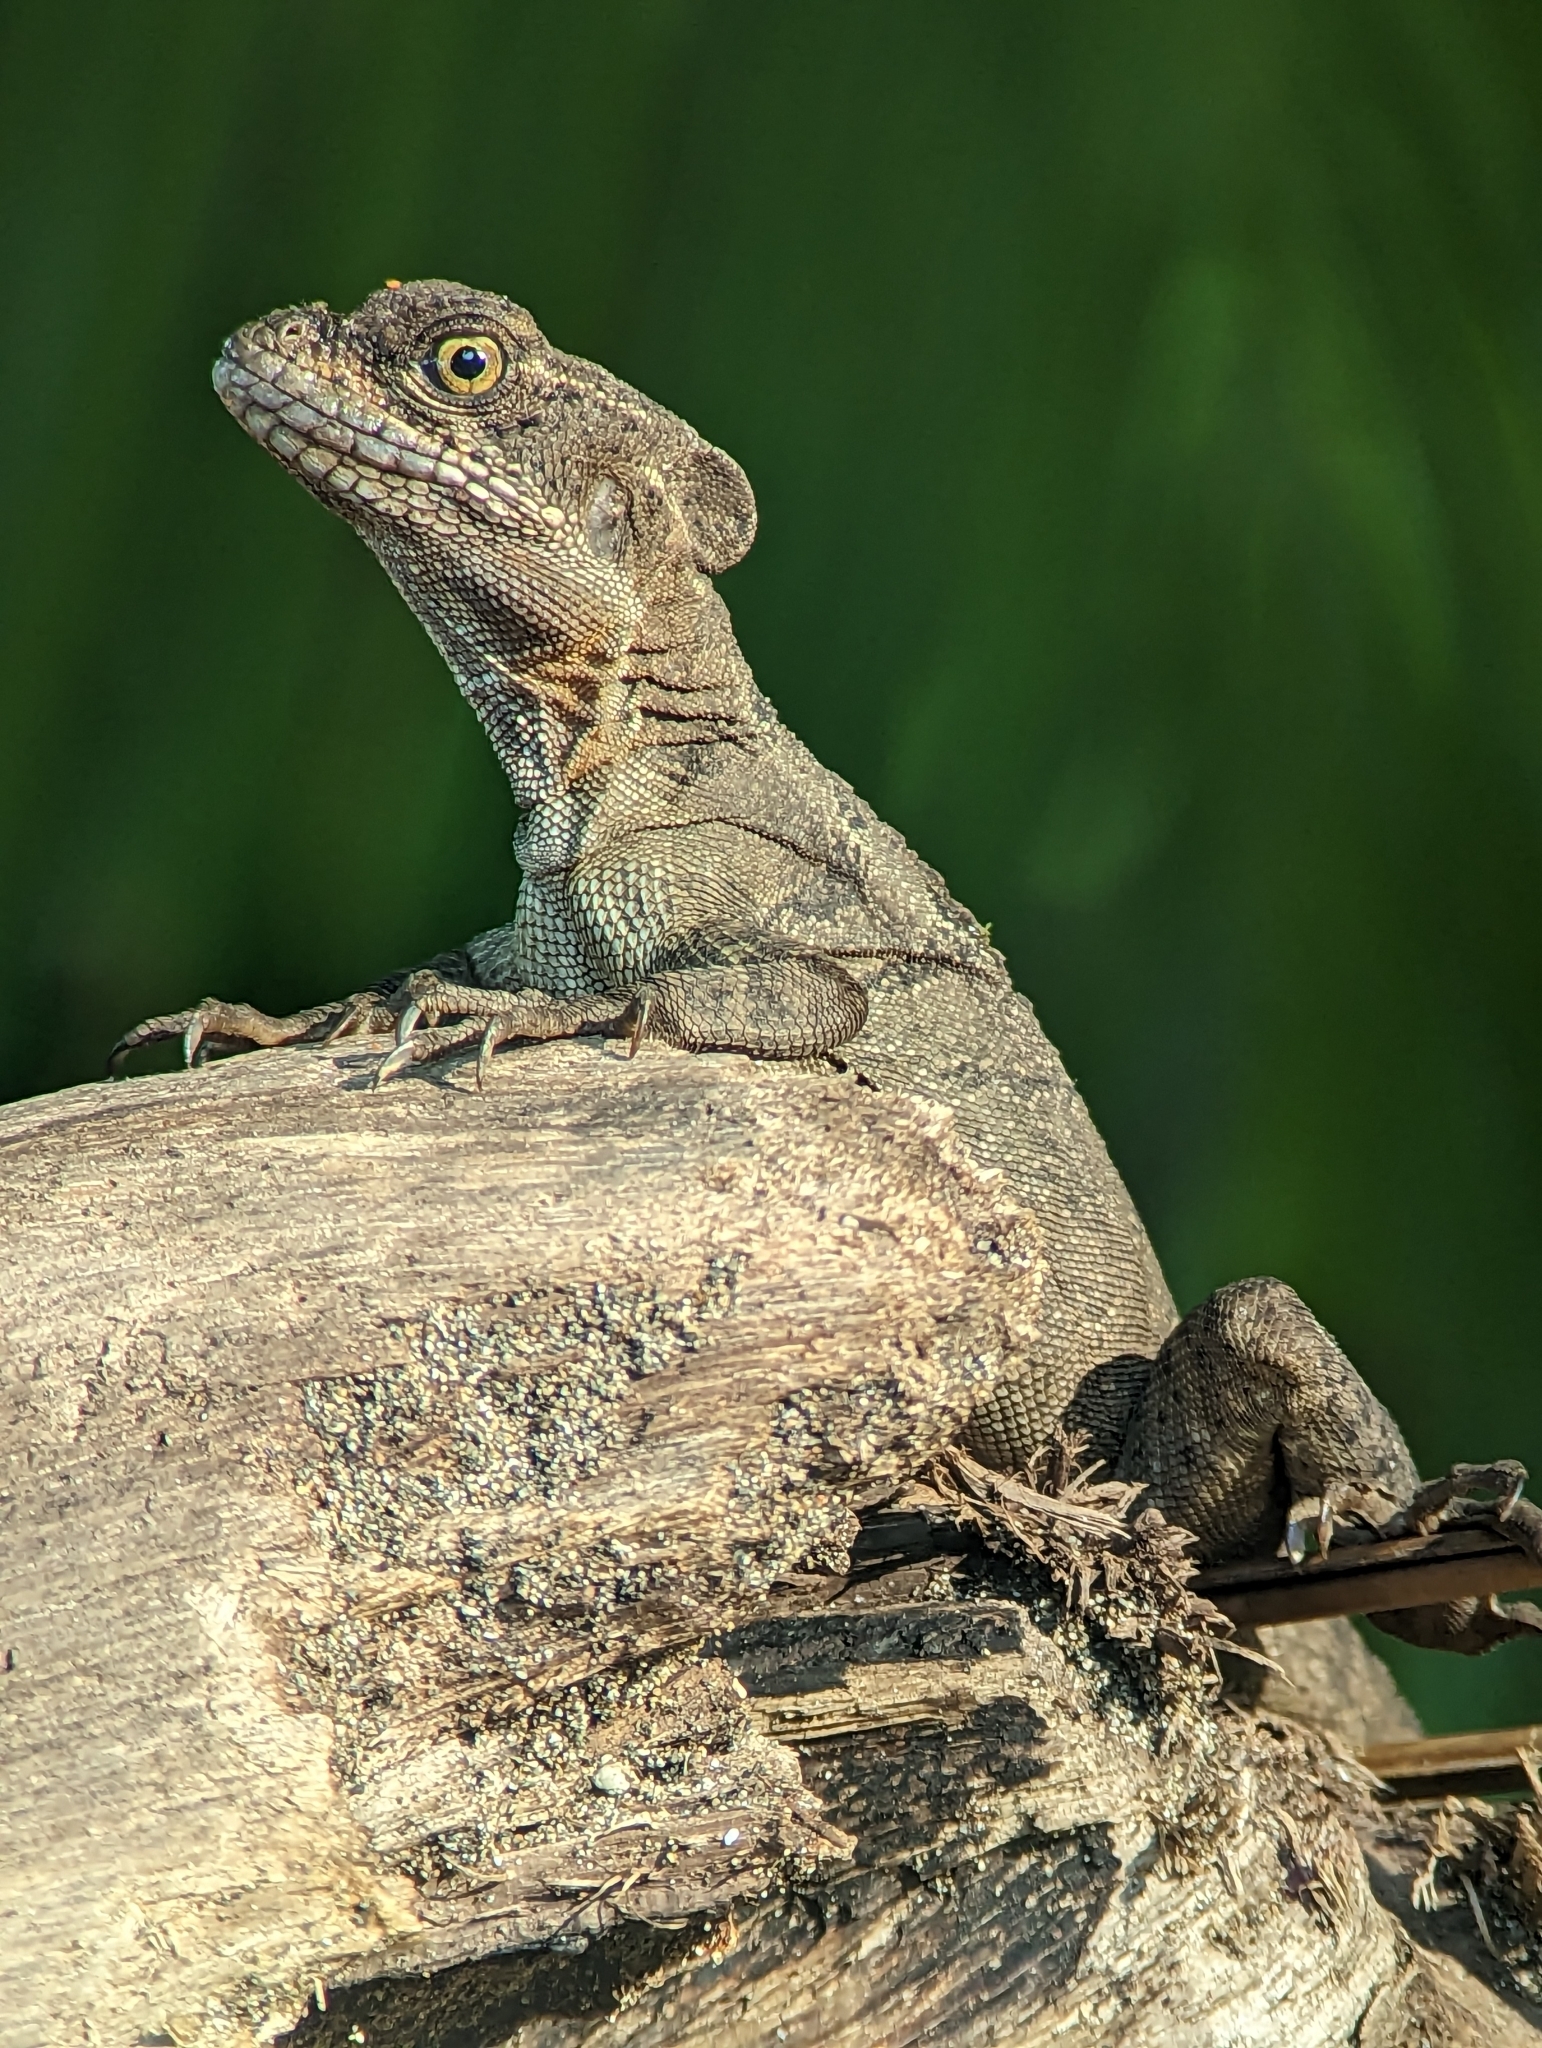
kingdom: Animalia
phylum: Chordata
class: Squamata
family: Corytophanidae
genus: Basiliscus
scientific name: Basiliscus basiliscus
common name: Common basilisk
